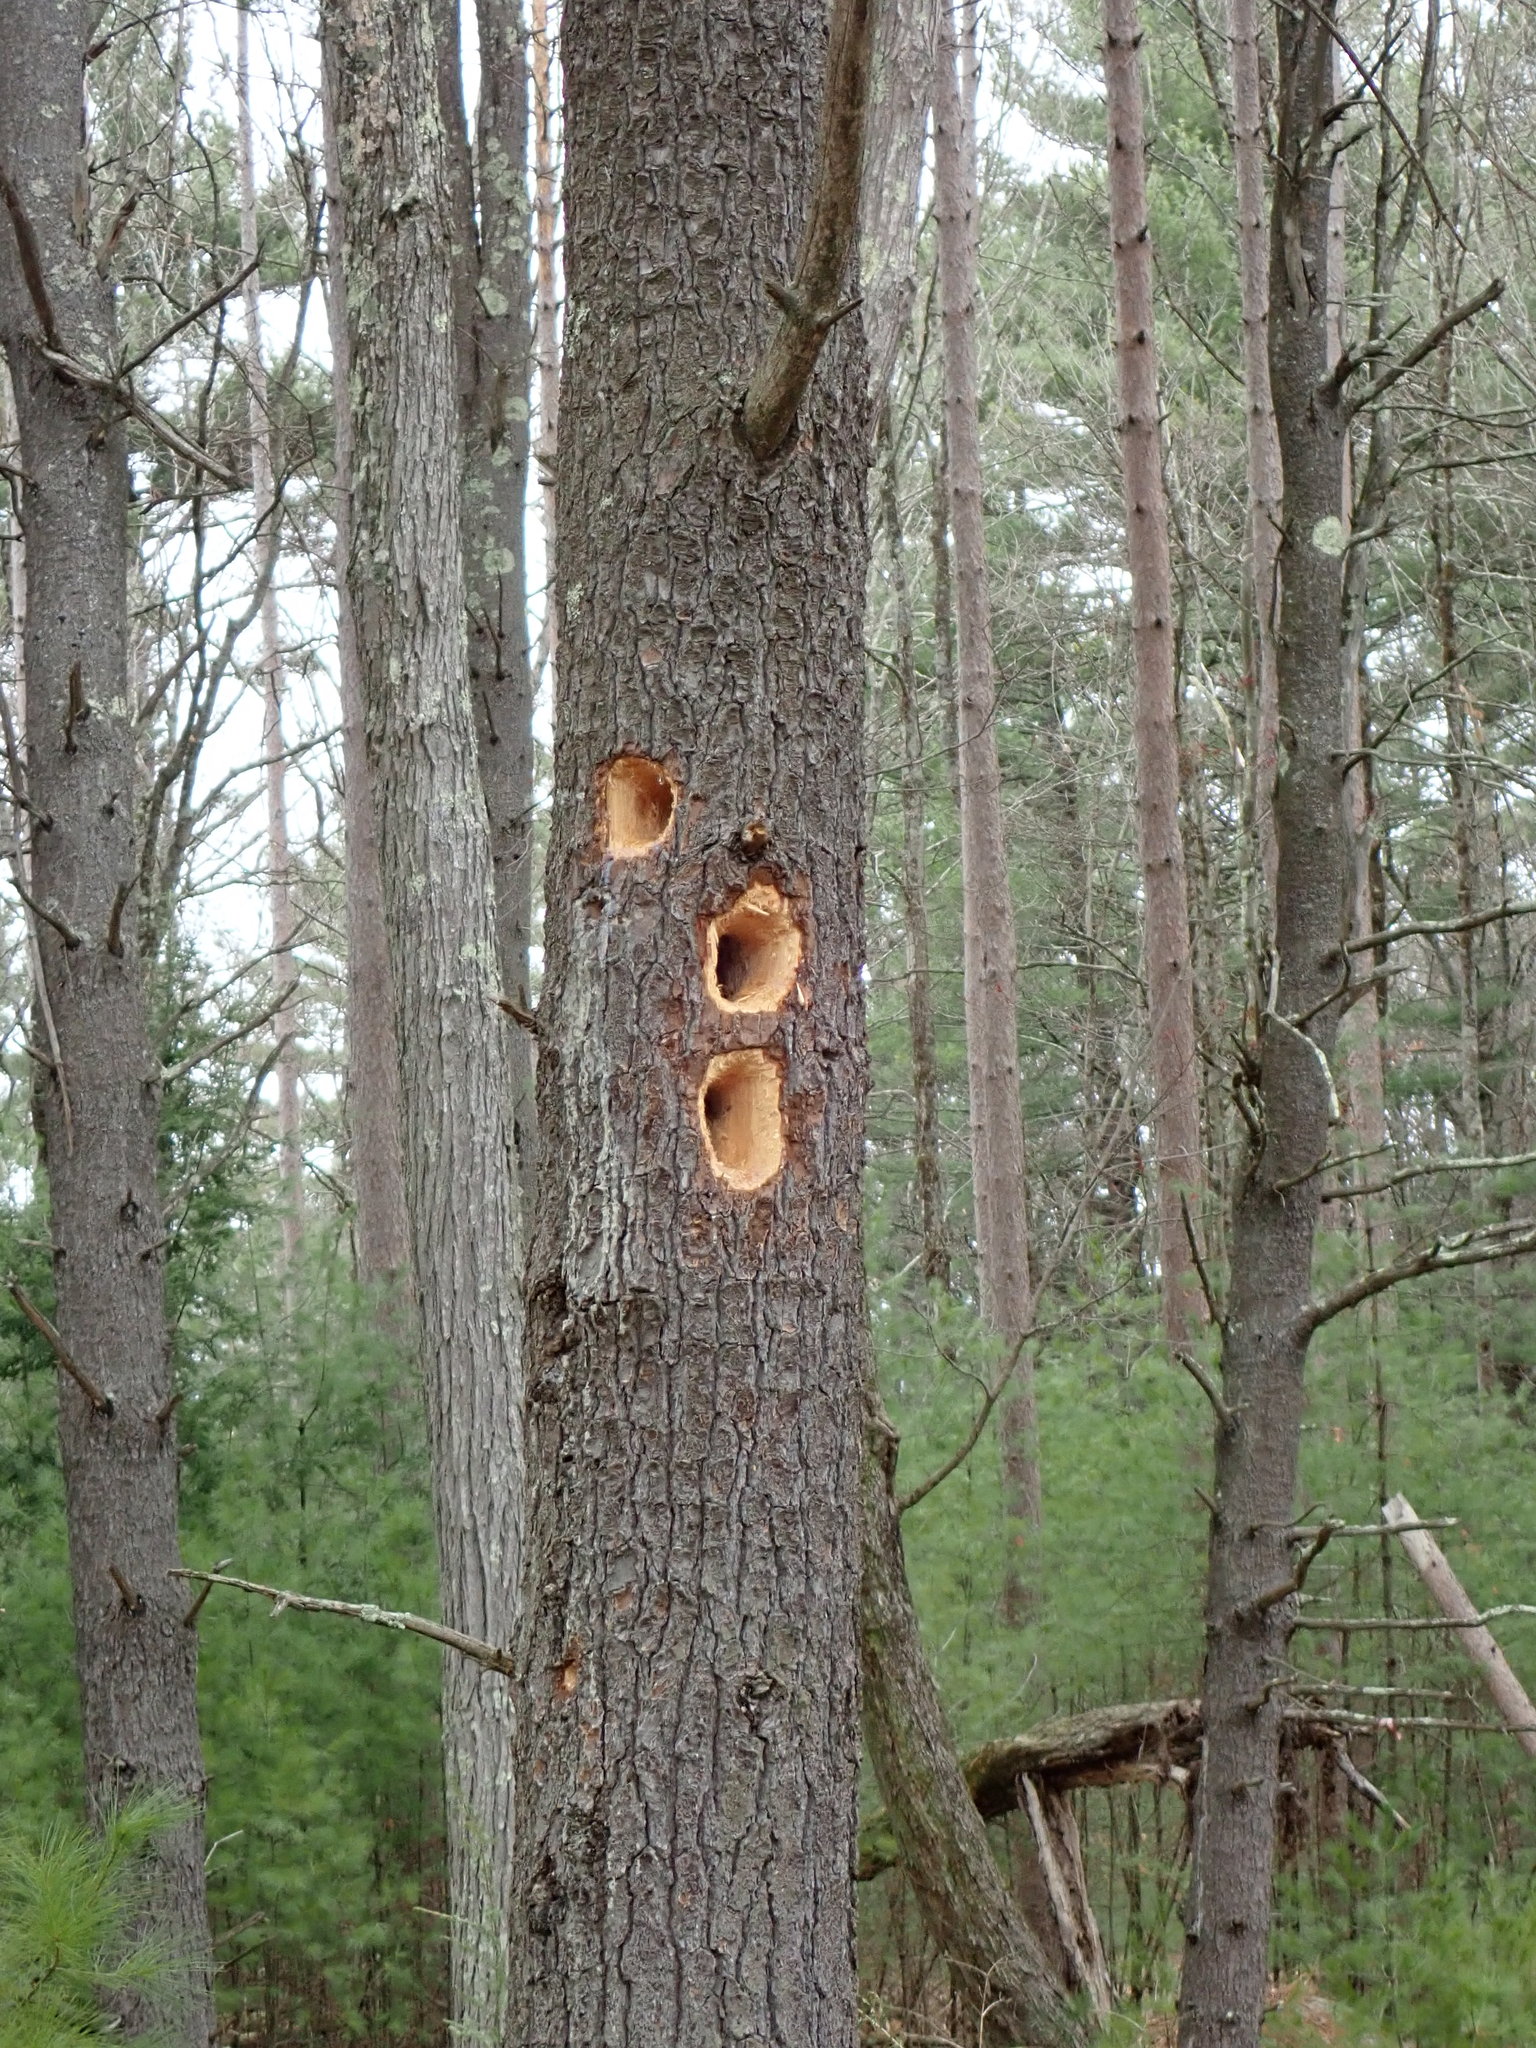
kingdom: Animalia
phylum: Chordata
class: Aves
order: Piciformes
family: Picidae
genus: Dryocopus
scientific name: Dryocopus pileatus
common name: Pileated woodpecker
